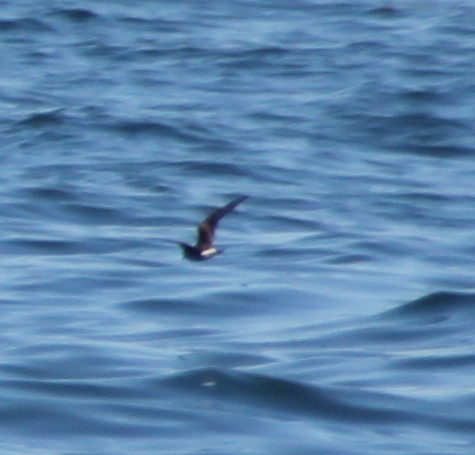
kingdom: Animalia
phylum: Chordata
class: Aves
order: Procellariiformes
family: Hydrobatidae
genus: Oceanodroma
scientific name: Oceanodroma leucorhoa
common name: Leach's storm-petrel
